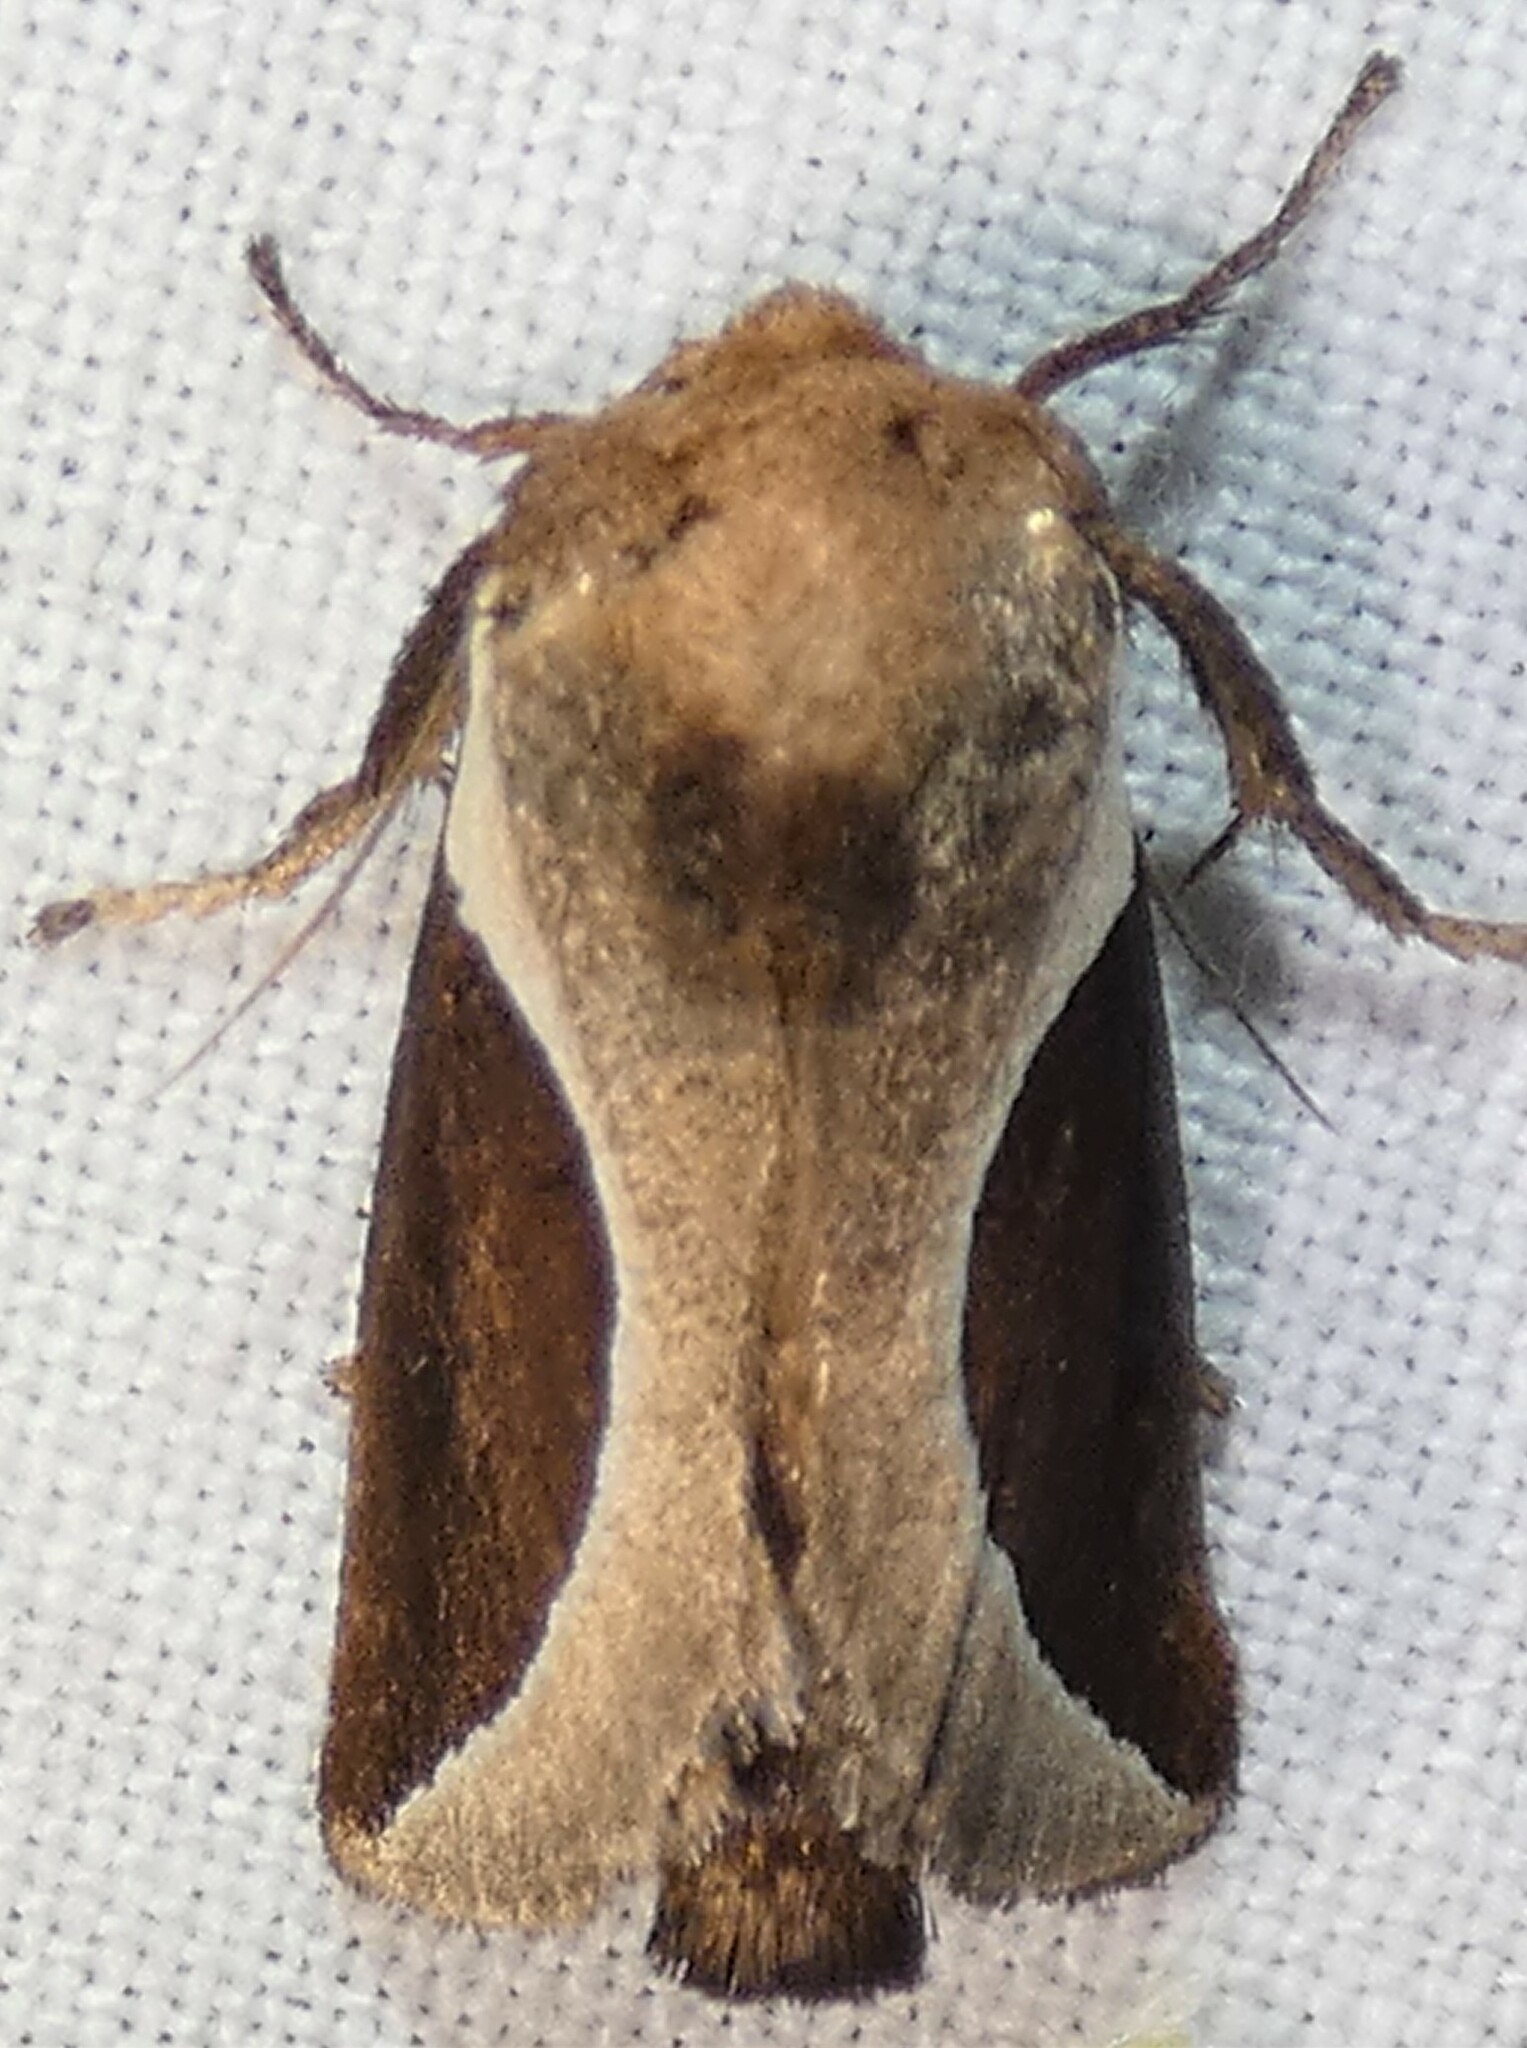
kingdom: Animalia
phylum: Arthropoda
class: Insecta
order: Lepidoptera
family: Limacodidae
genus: Prolimacodes
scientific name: Prolimacodes badia
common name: Skiff moth
